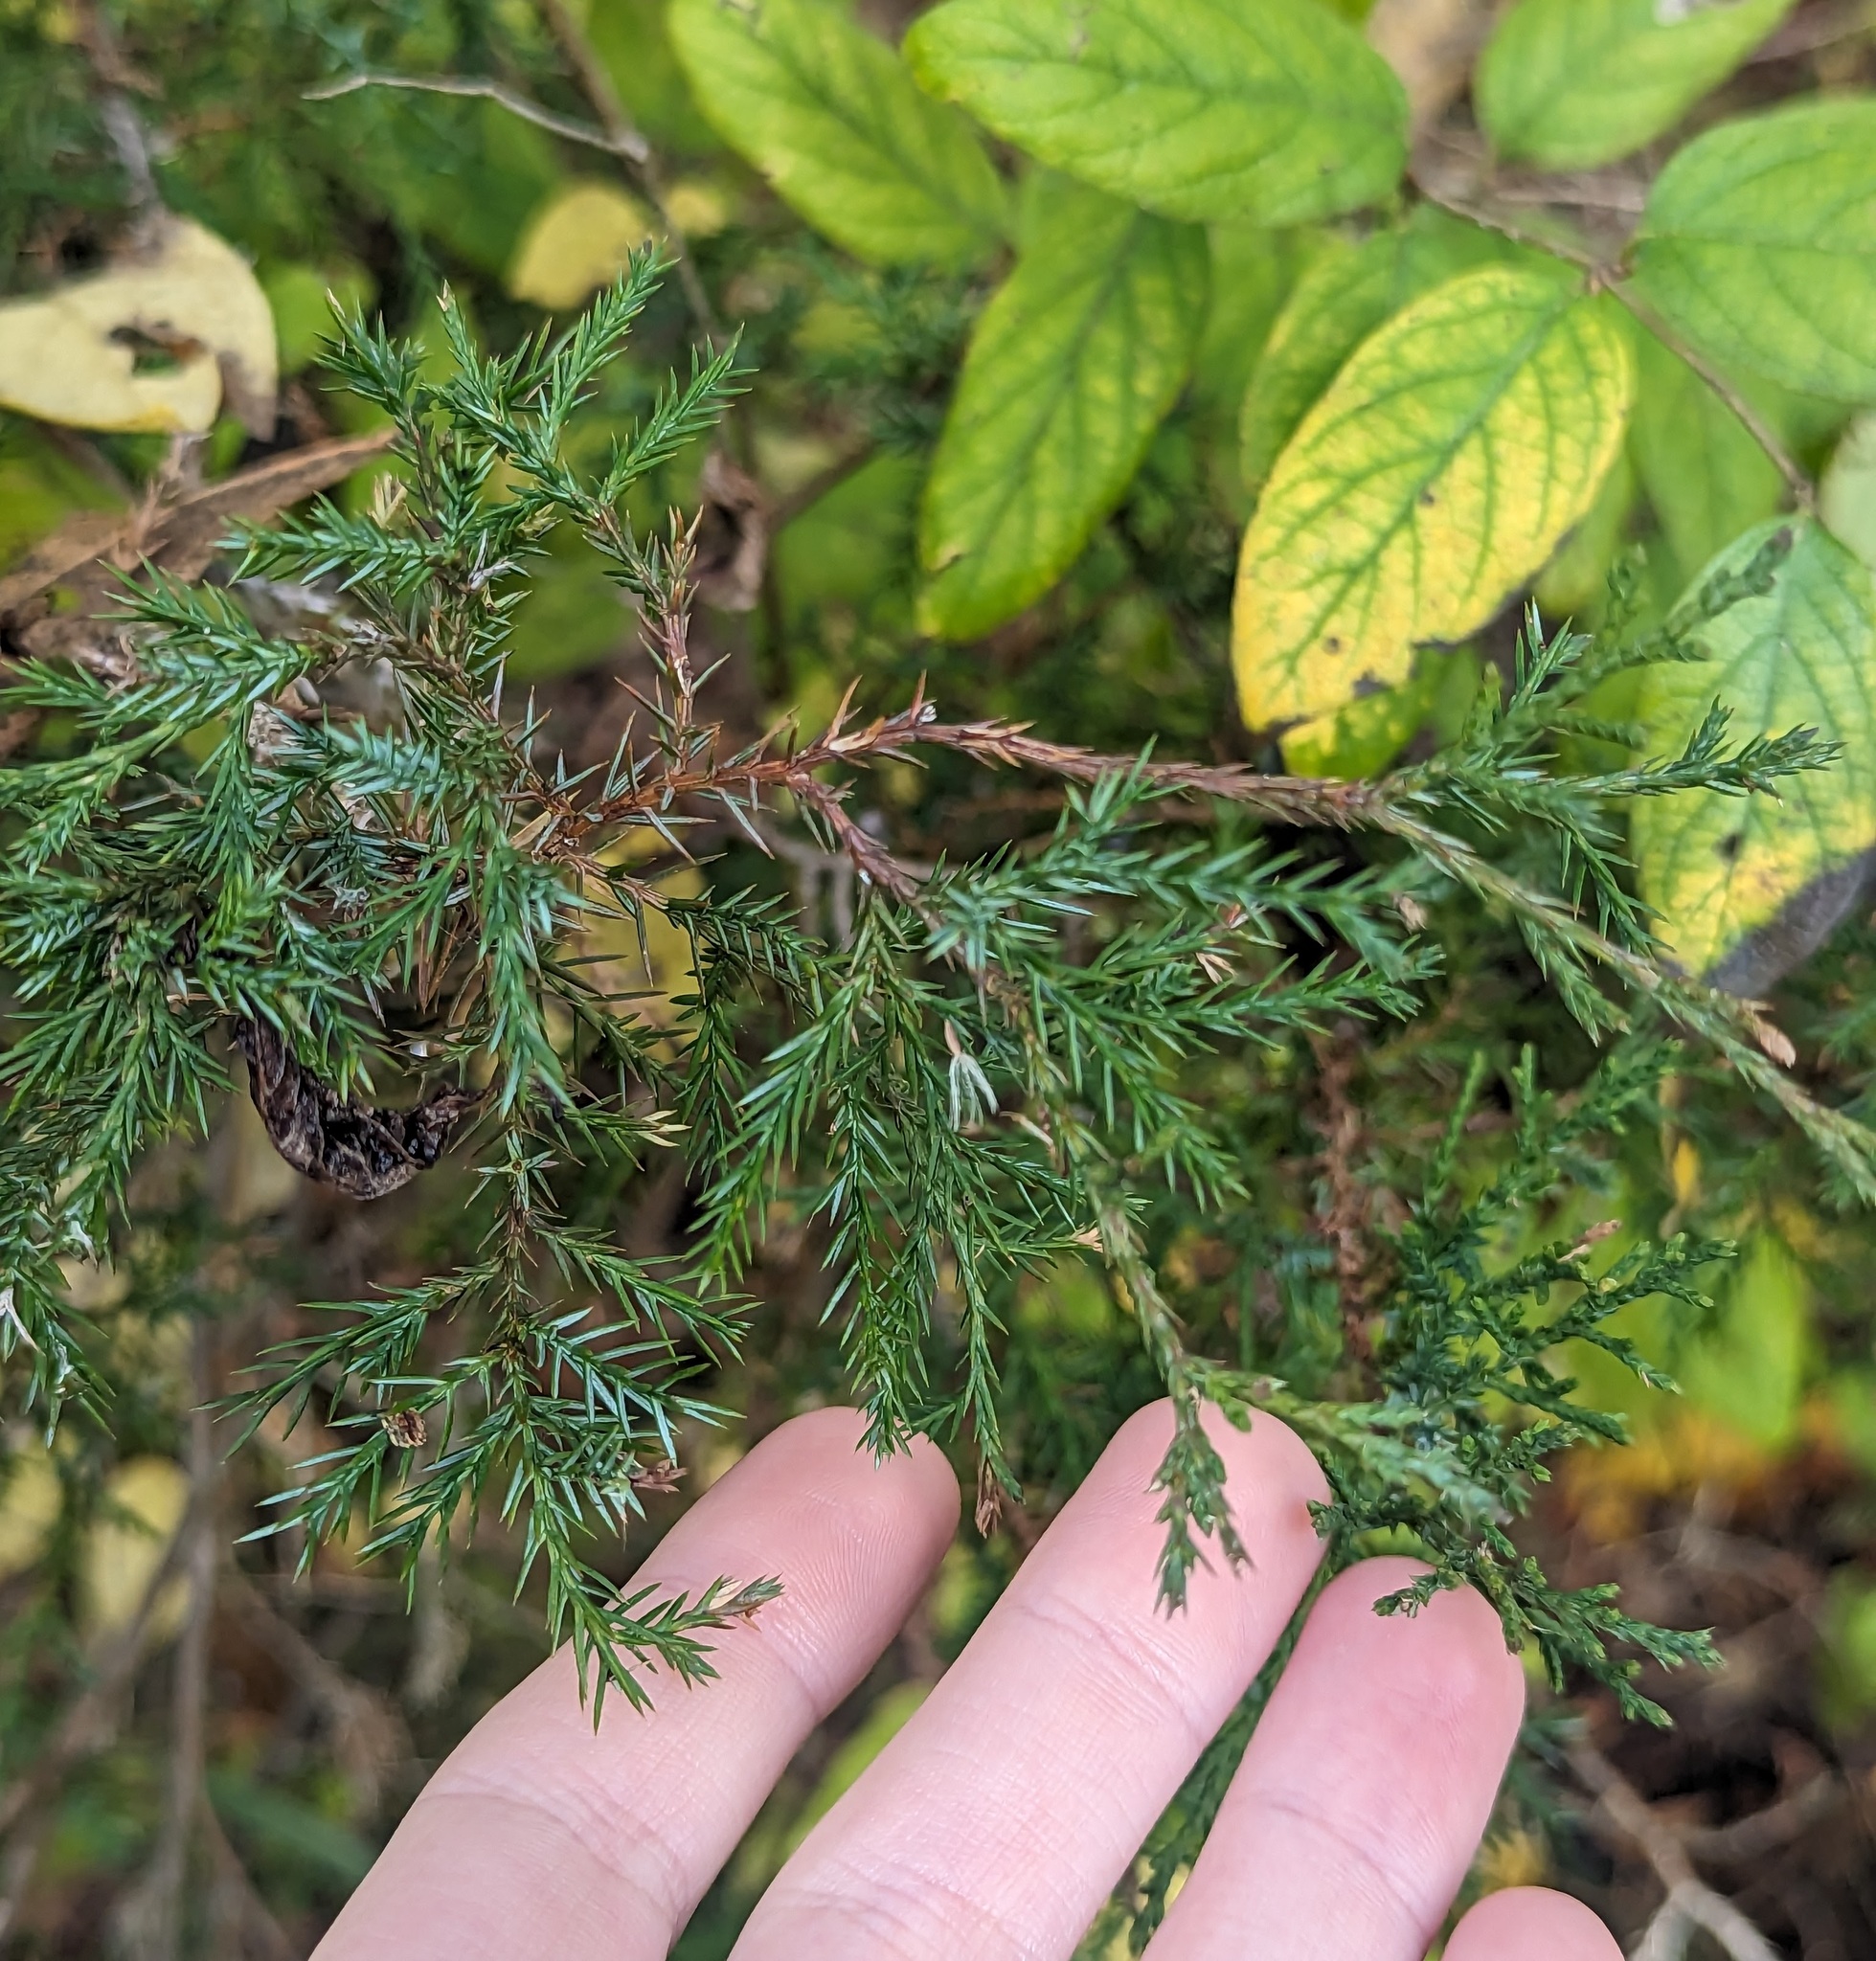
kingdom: Plantae
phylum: Tracheophyta
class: Pinopsida
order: Pinales
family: Cupressaceae
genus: Juniperus
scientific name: Juniperus virginiana
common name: Red juniper
